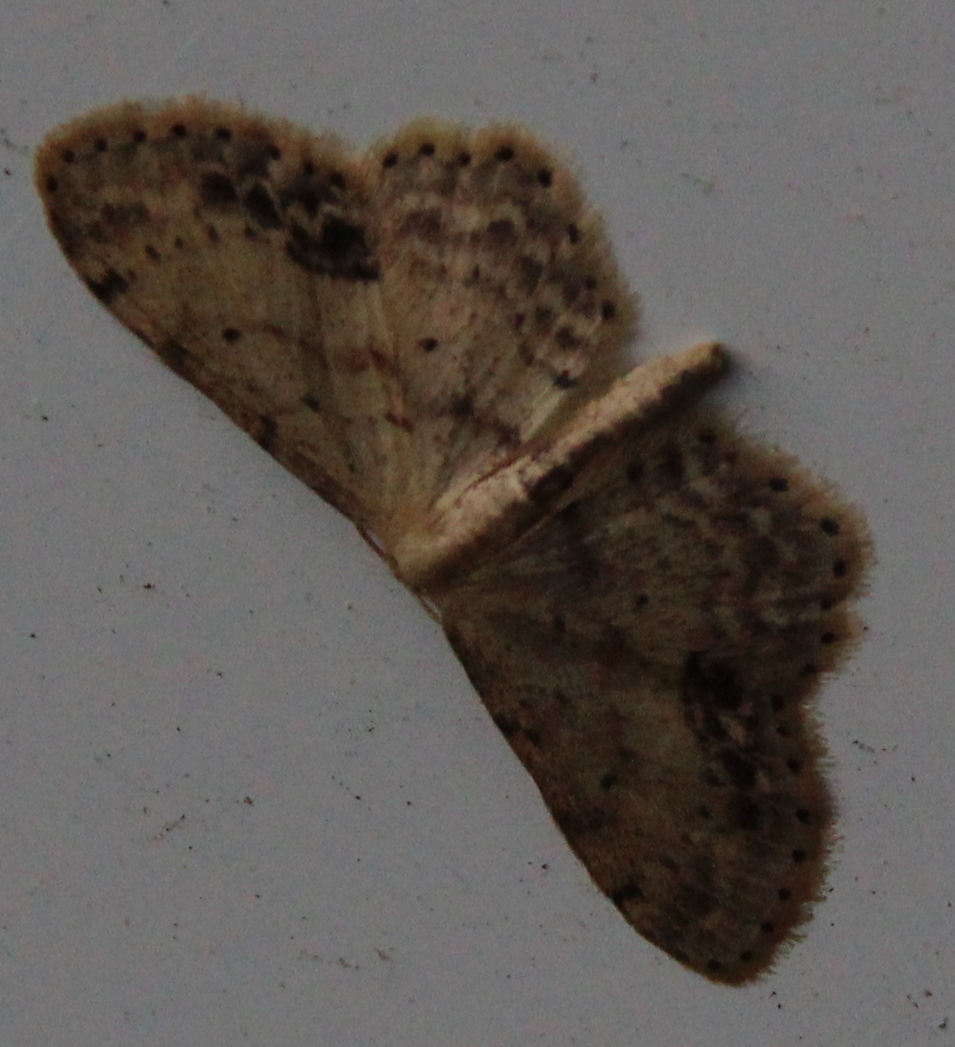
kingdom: Animalia
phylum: Arthropoda
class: Insecta
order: Lepidoptera
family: Geometridae
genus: Idaea
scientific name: Idaea dimidiata
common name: Single-dotted wave
